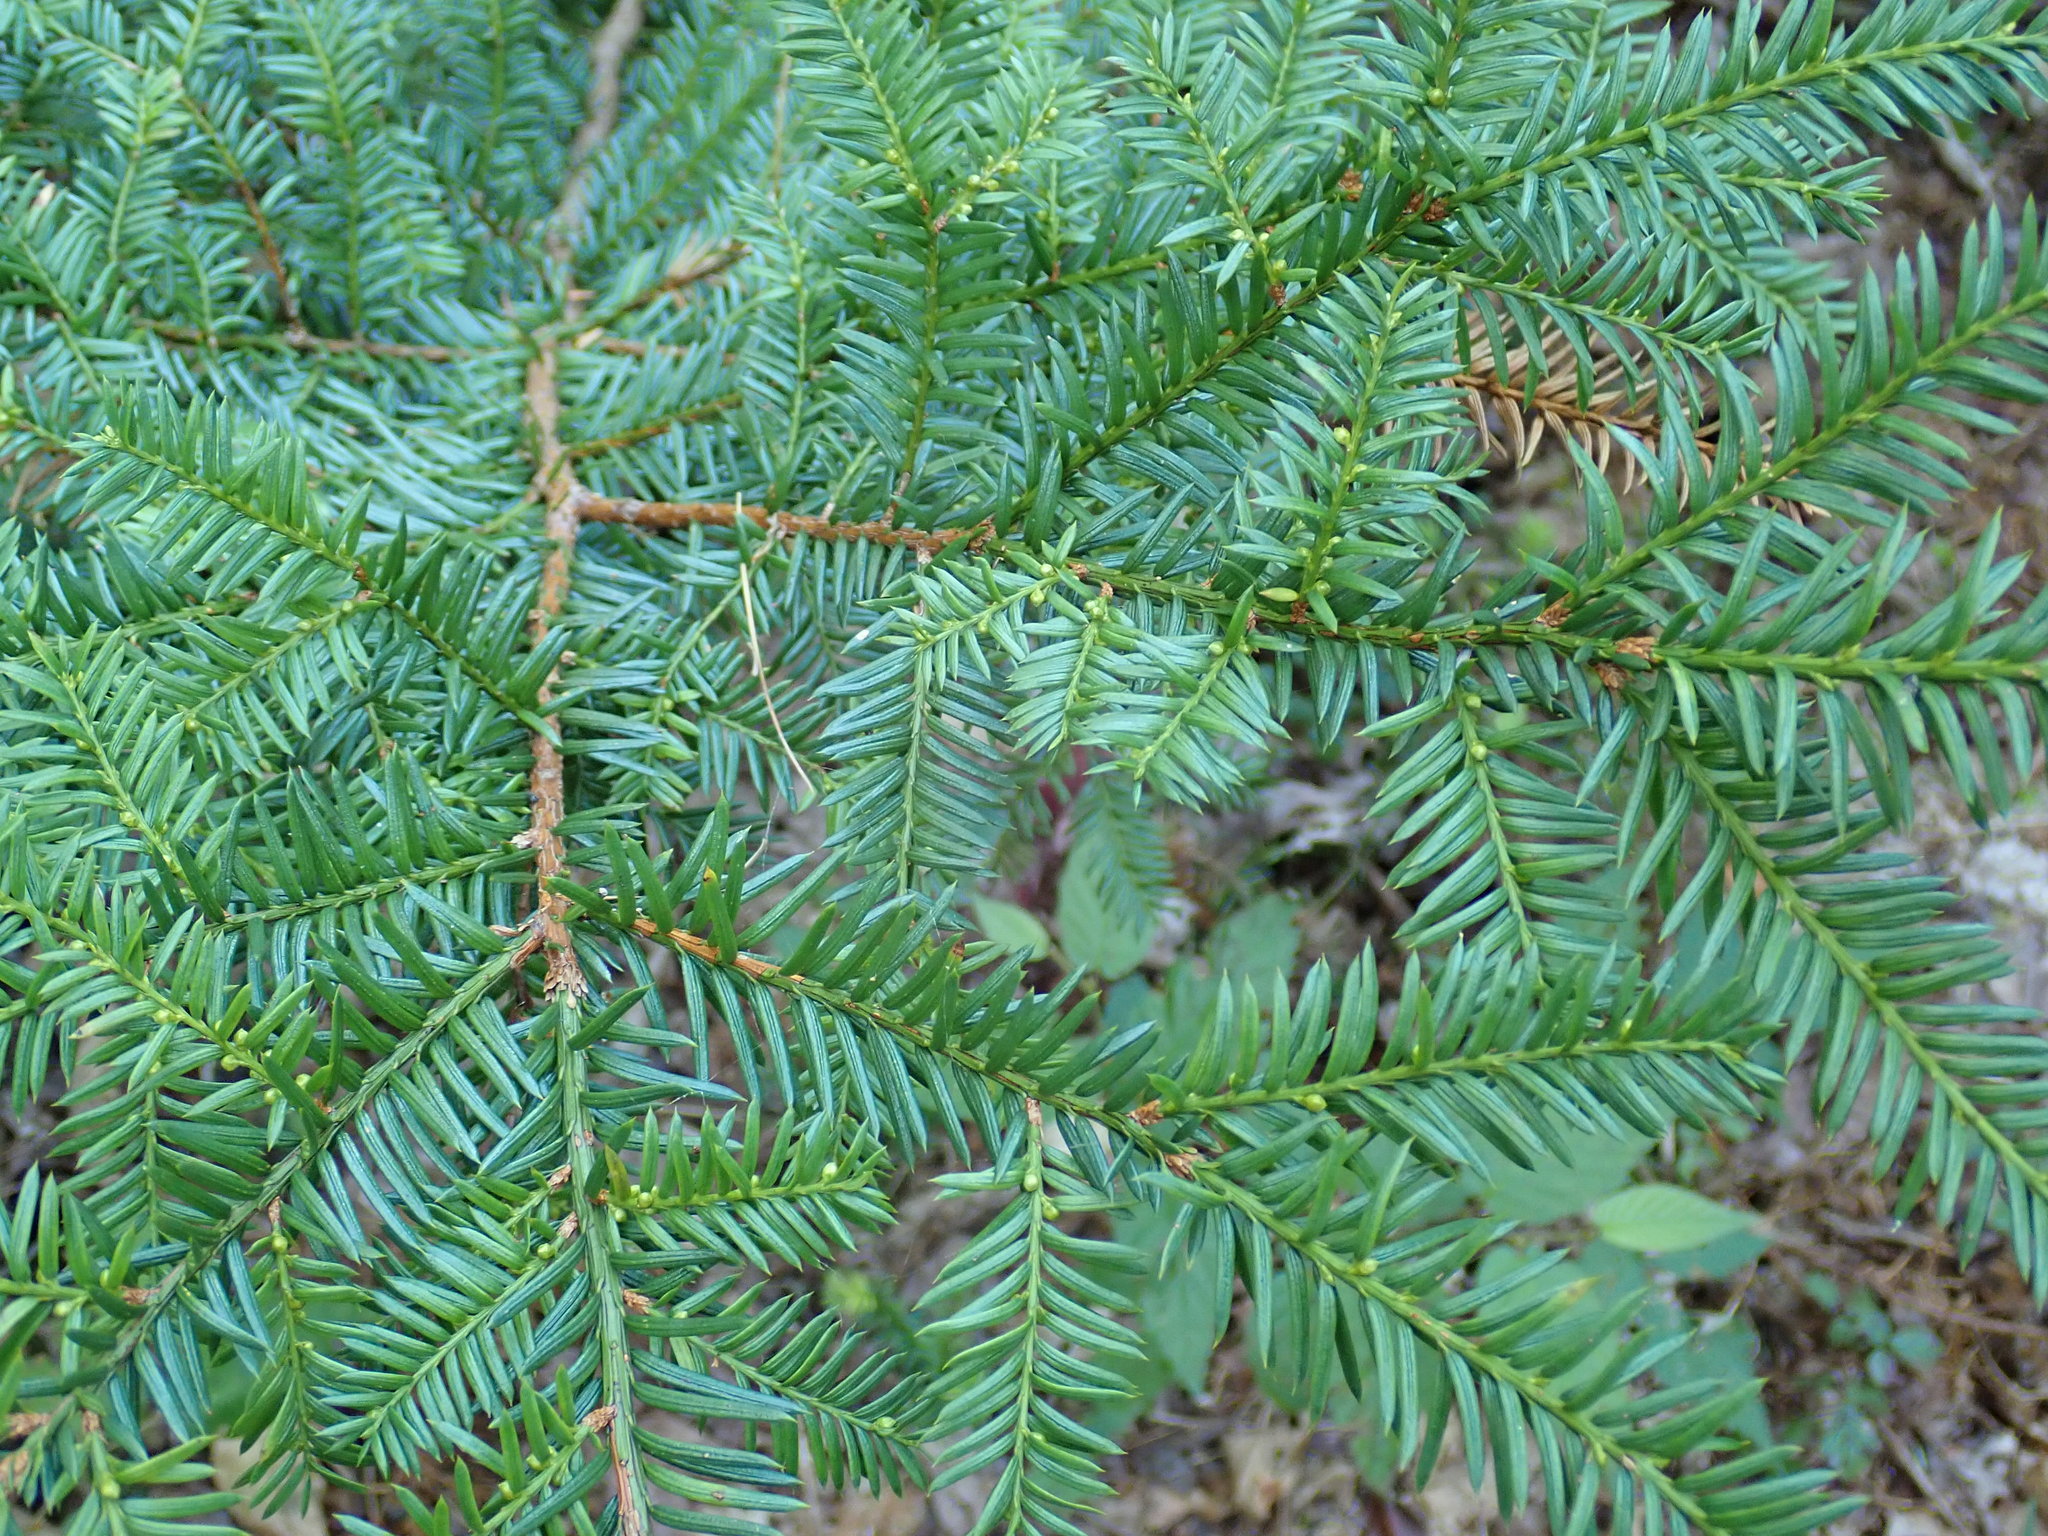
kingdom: Plantae
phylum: Tracheophyta
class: Pinopsida
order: Pinales
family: Taxaceae
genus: Taxus
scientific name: Taxus canadensis
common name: American yew
